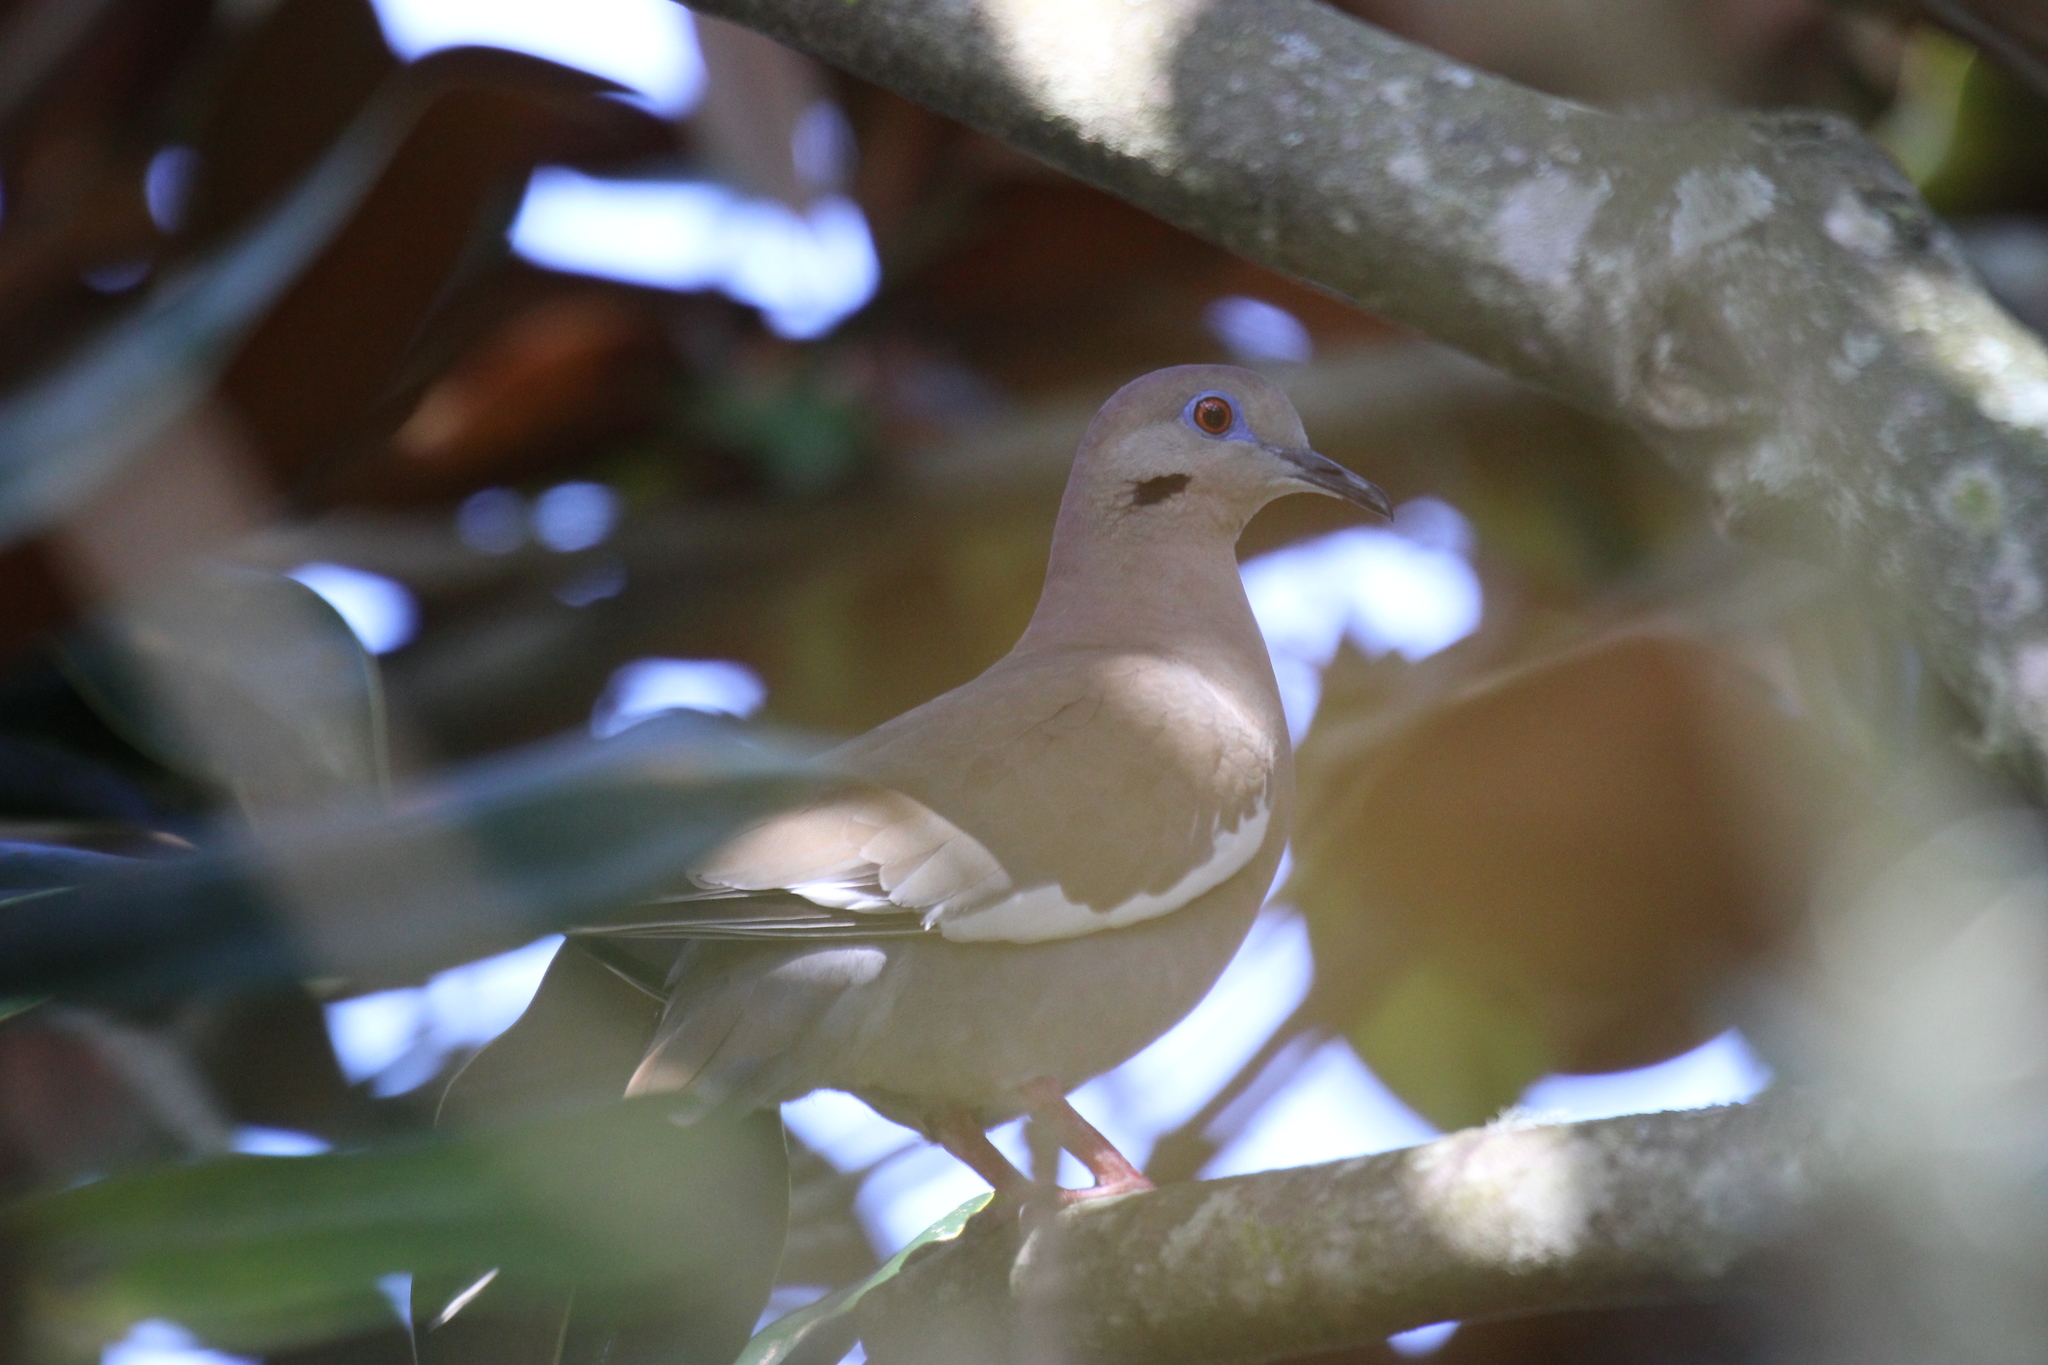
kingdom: Animalia
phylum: Chordata
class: Aves
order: Columbiformes
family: Columbidae
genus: Zenaida
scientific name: Zenaida asiatica
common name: White-winged dove
